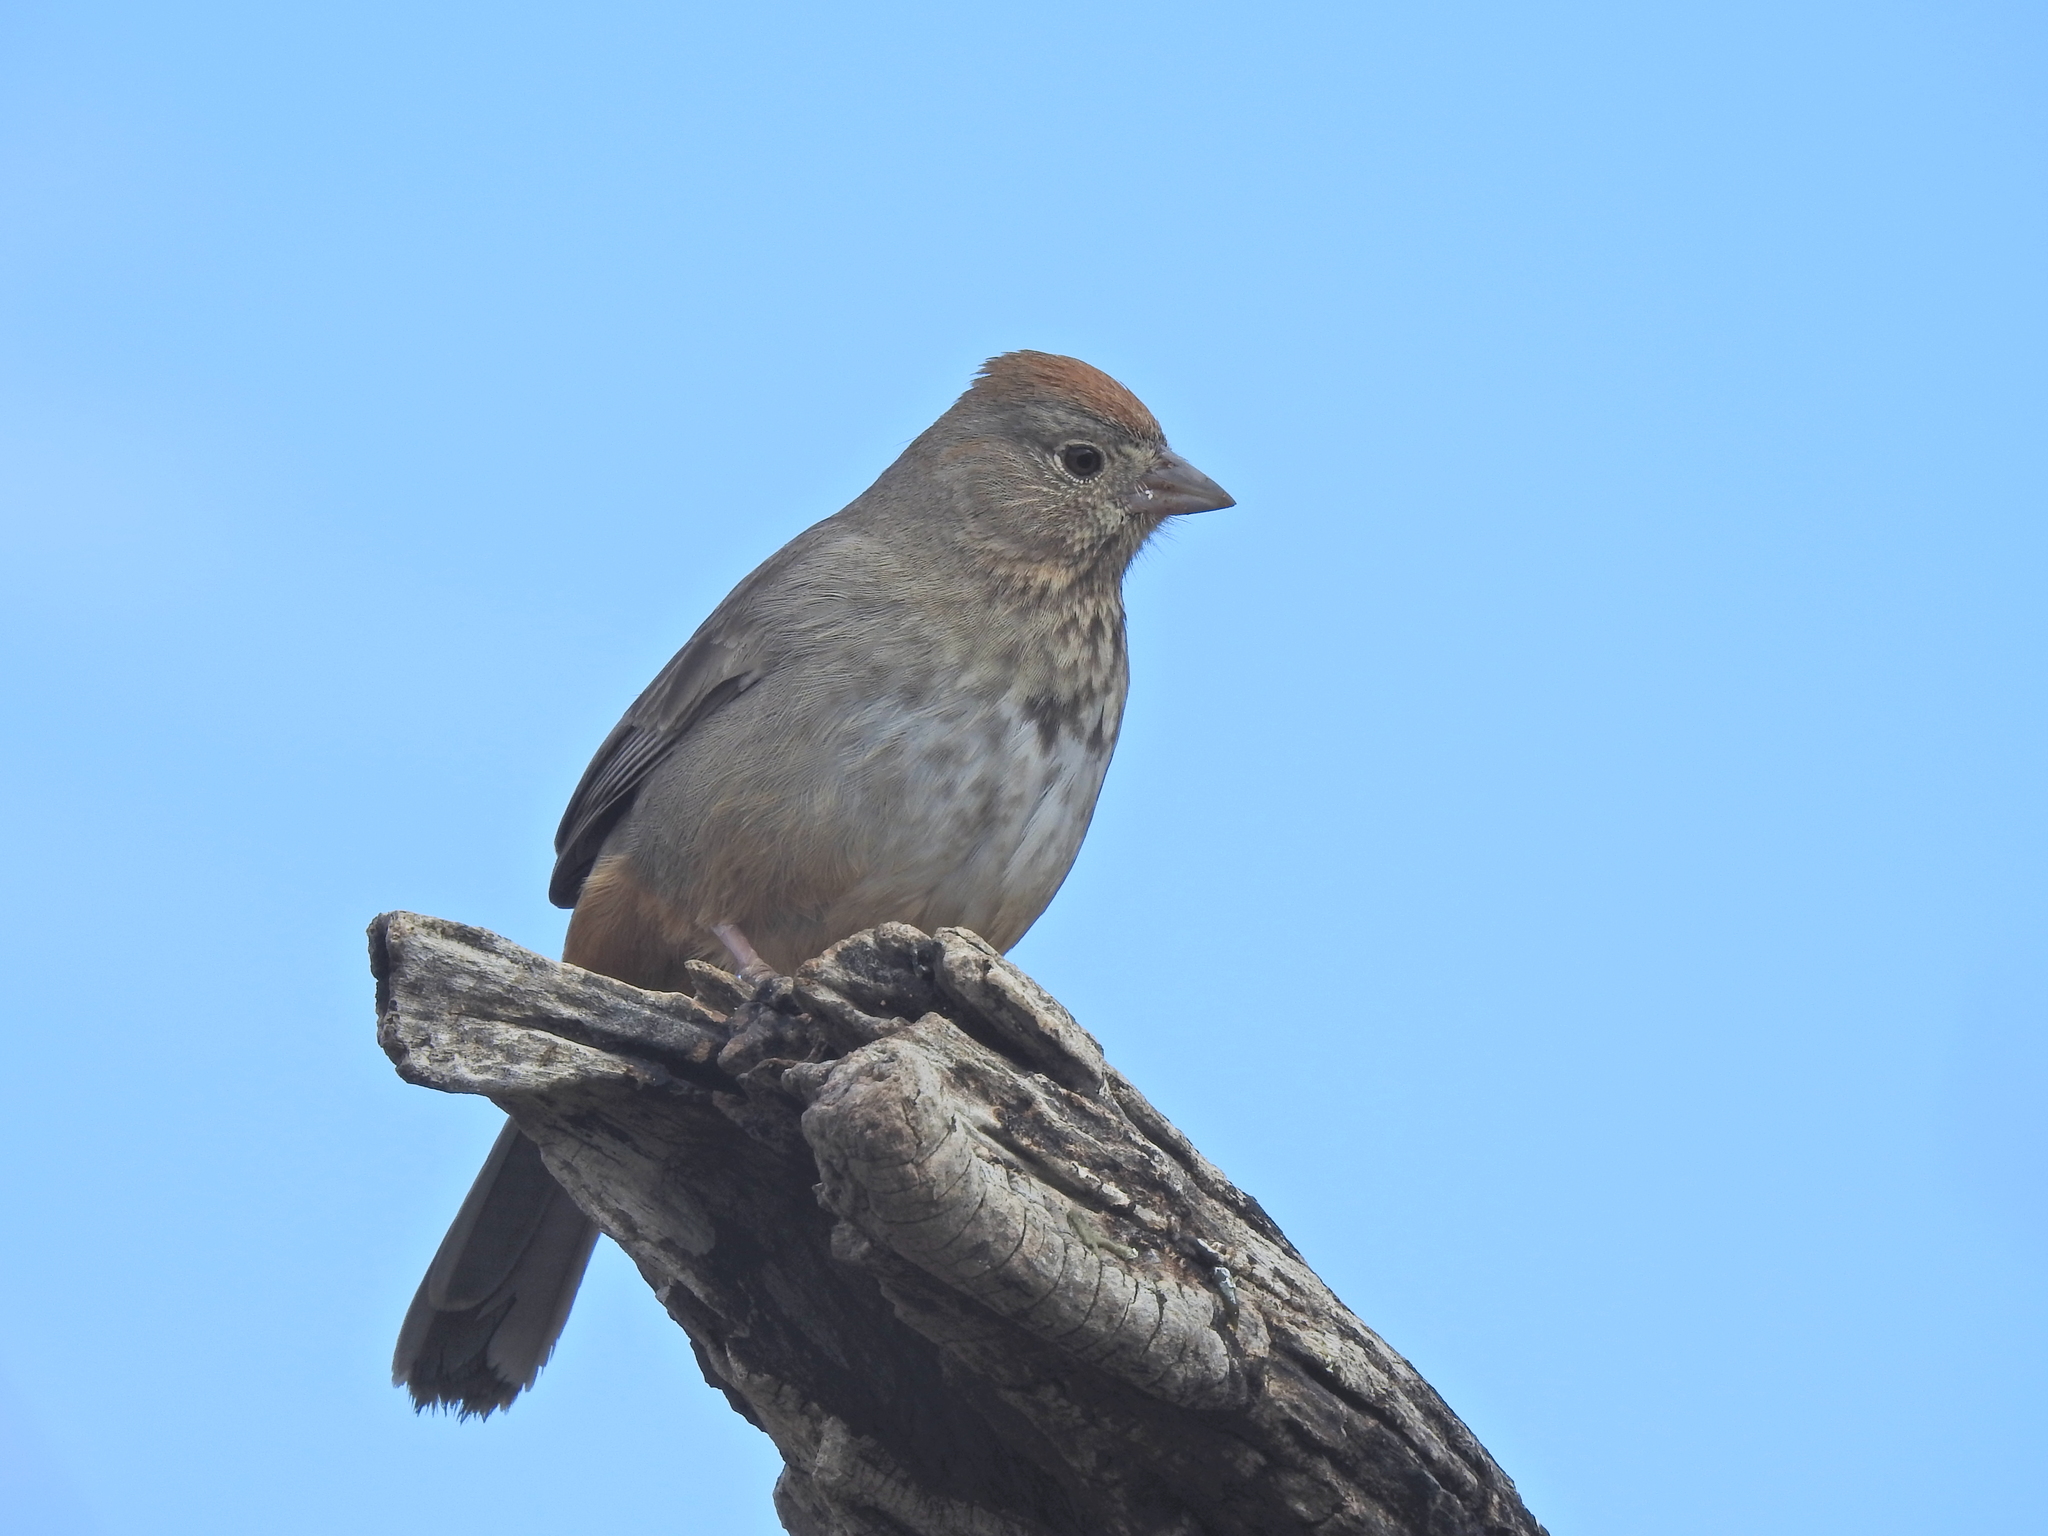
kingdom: Animalia
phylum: Chordata
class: Aves
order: Passeriformes
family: Passerellidae
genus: Melozone
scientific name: Melozone fusca
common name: Canyon towhee
